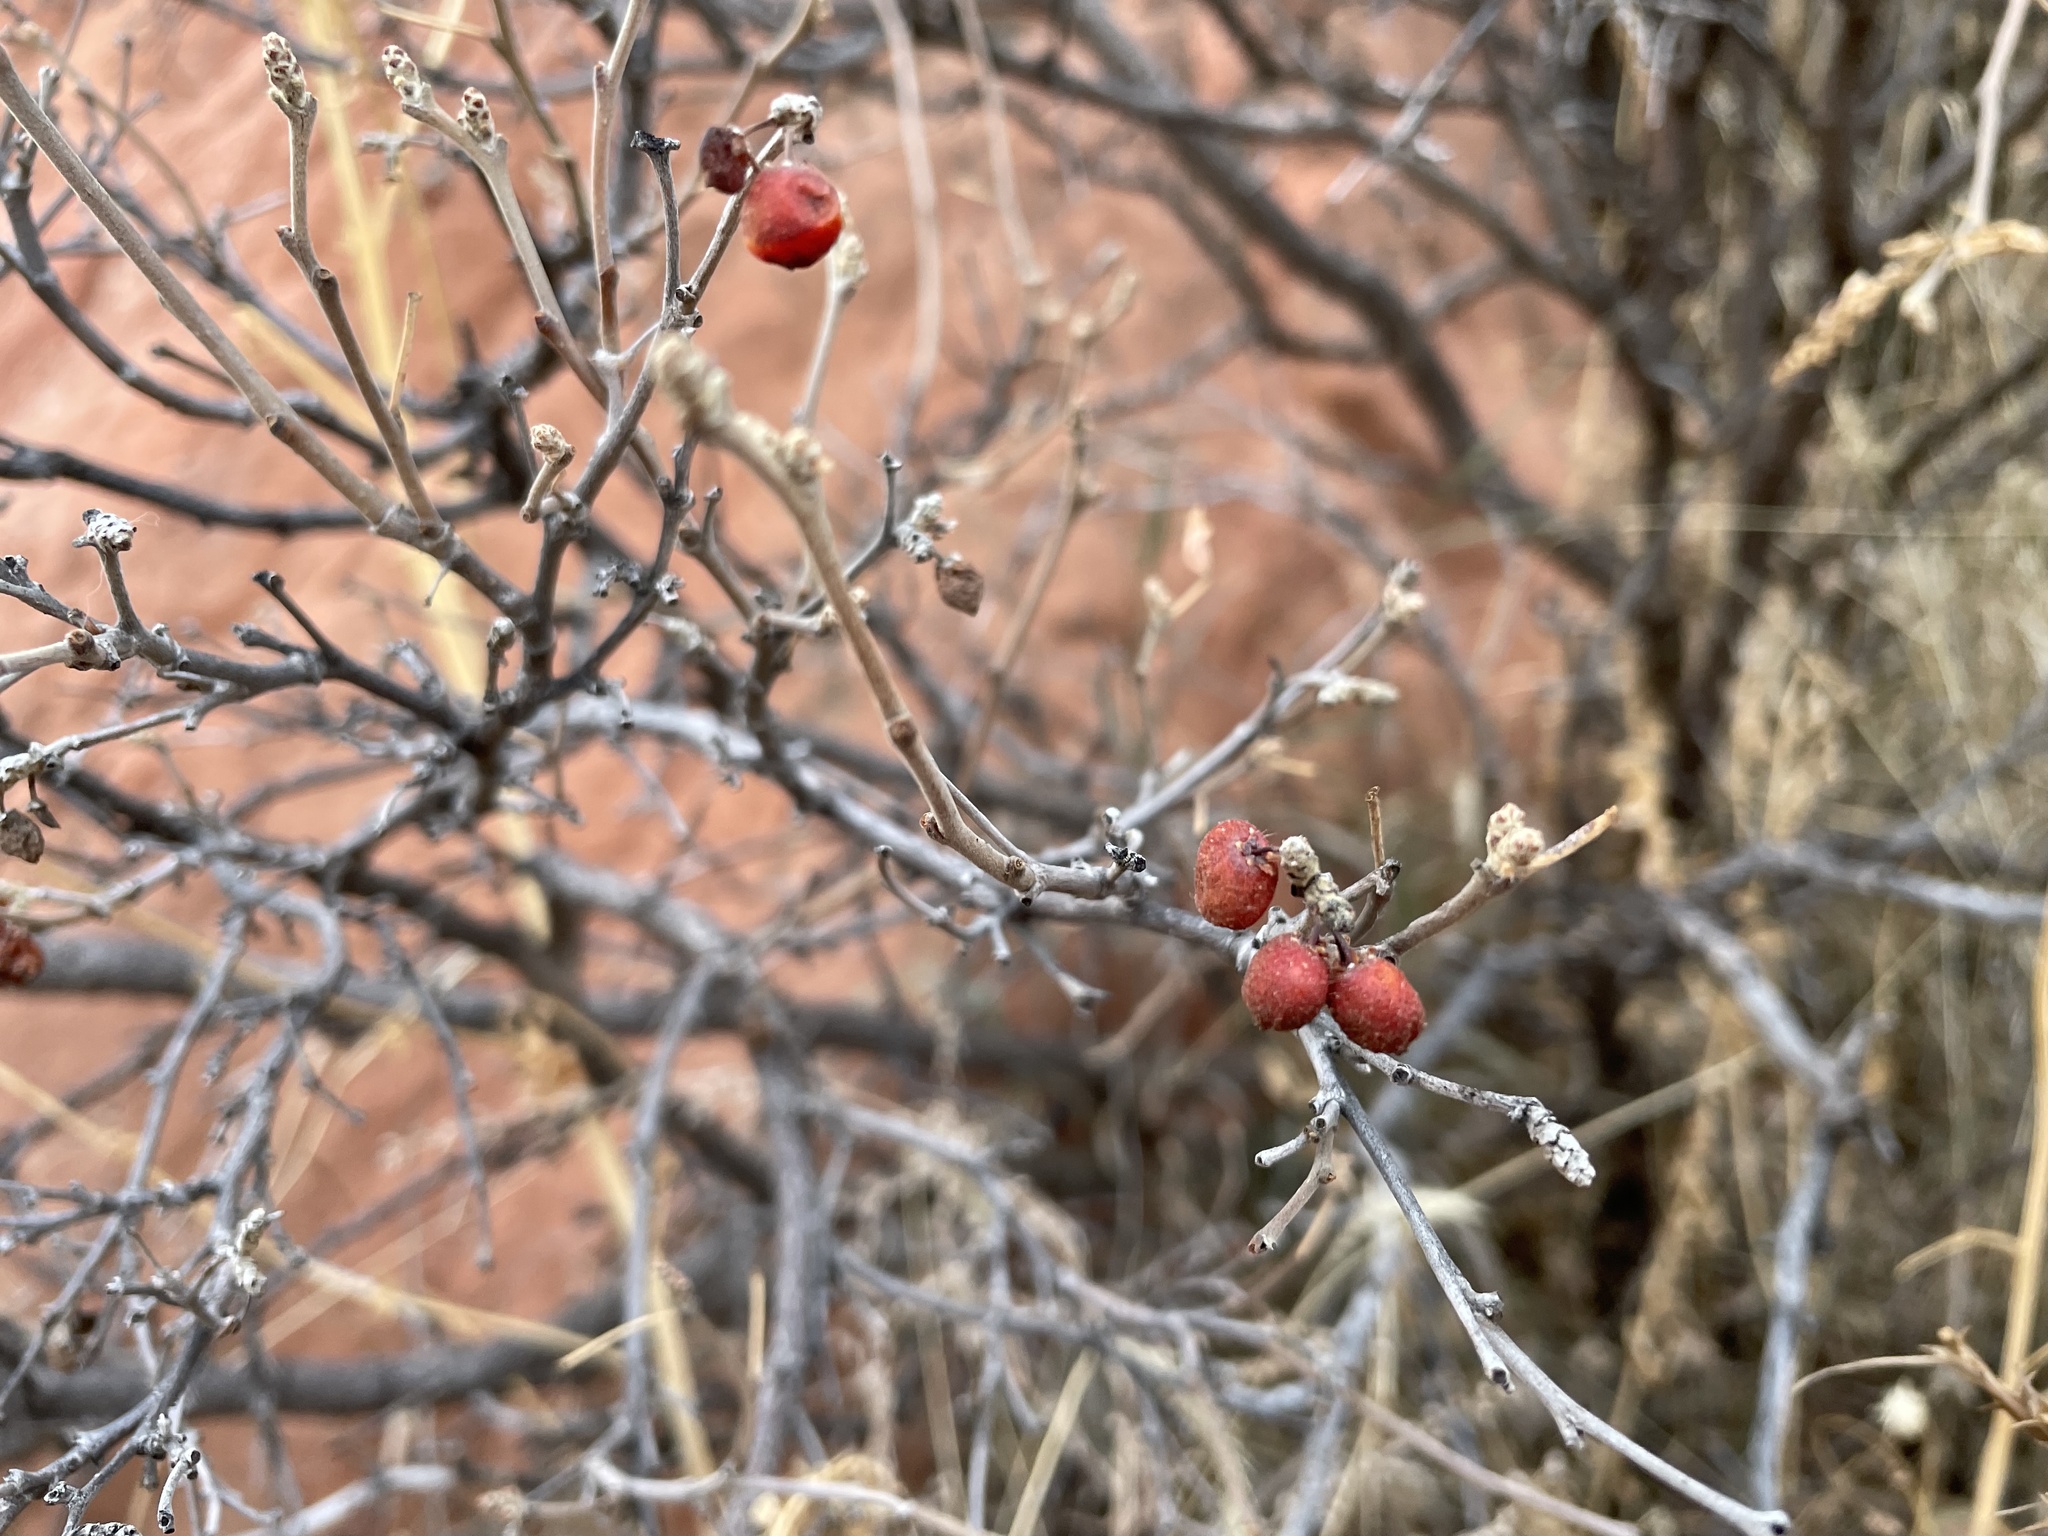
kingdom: Plantae
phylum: Tracheophyta
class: Magnoliopsida
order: Sapindales
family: Anacardiaceae
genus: Rhus
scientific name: Rhus trilobata
